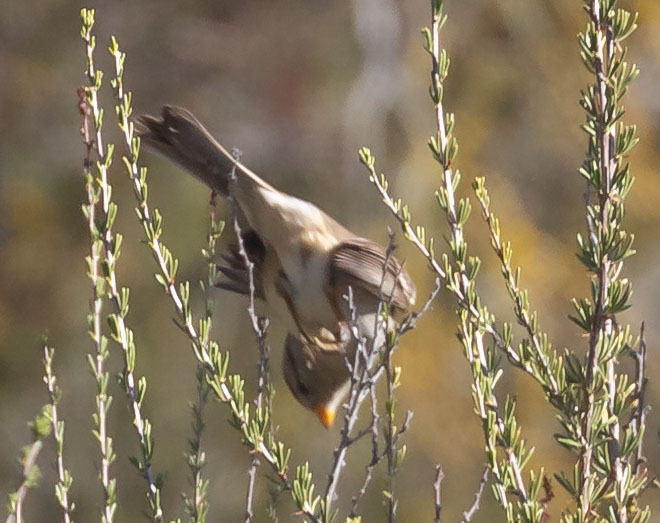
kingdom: Animalia
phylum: Chordata
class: Aves
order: Passeriformes
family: Passerellidae
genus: Zonotrichia
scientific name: Zonotrichia leucophrys
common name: White-crowned sparrow
